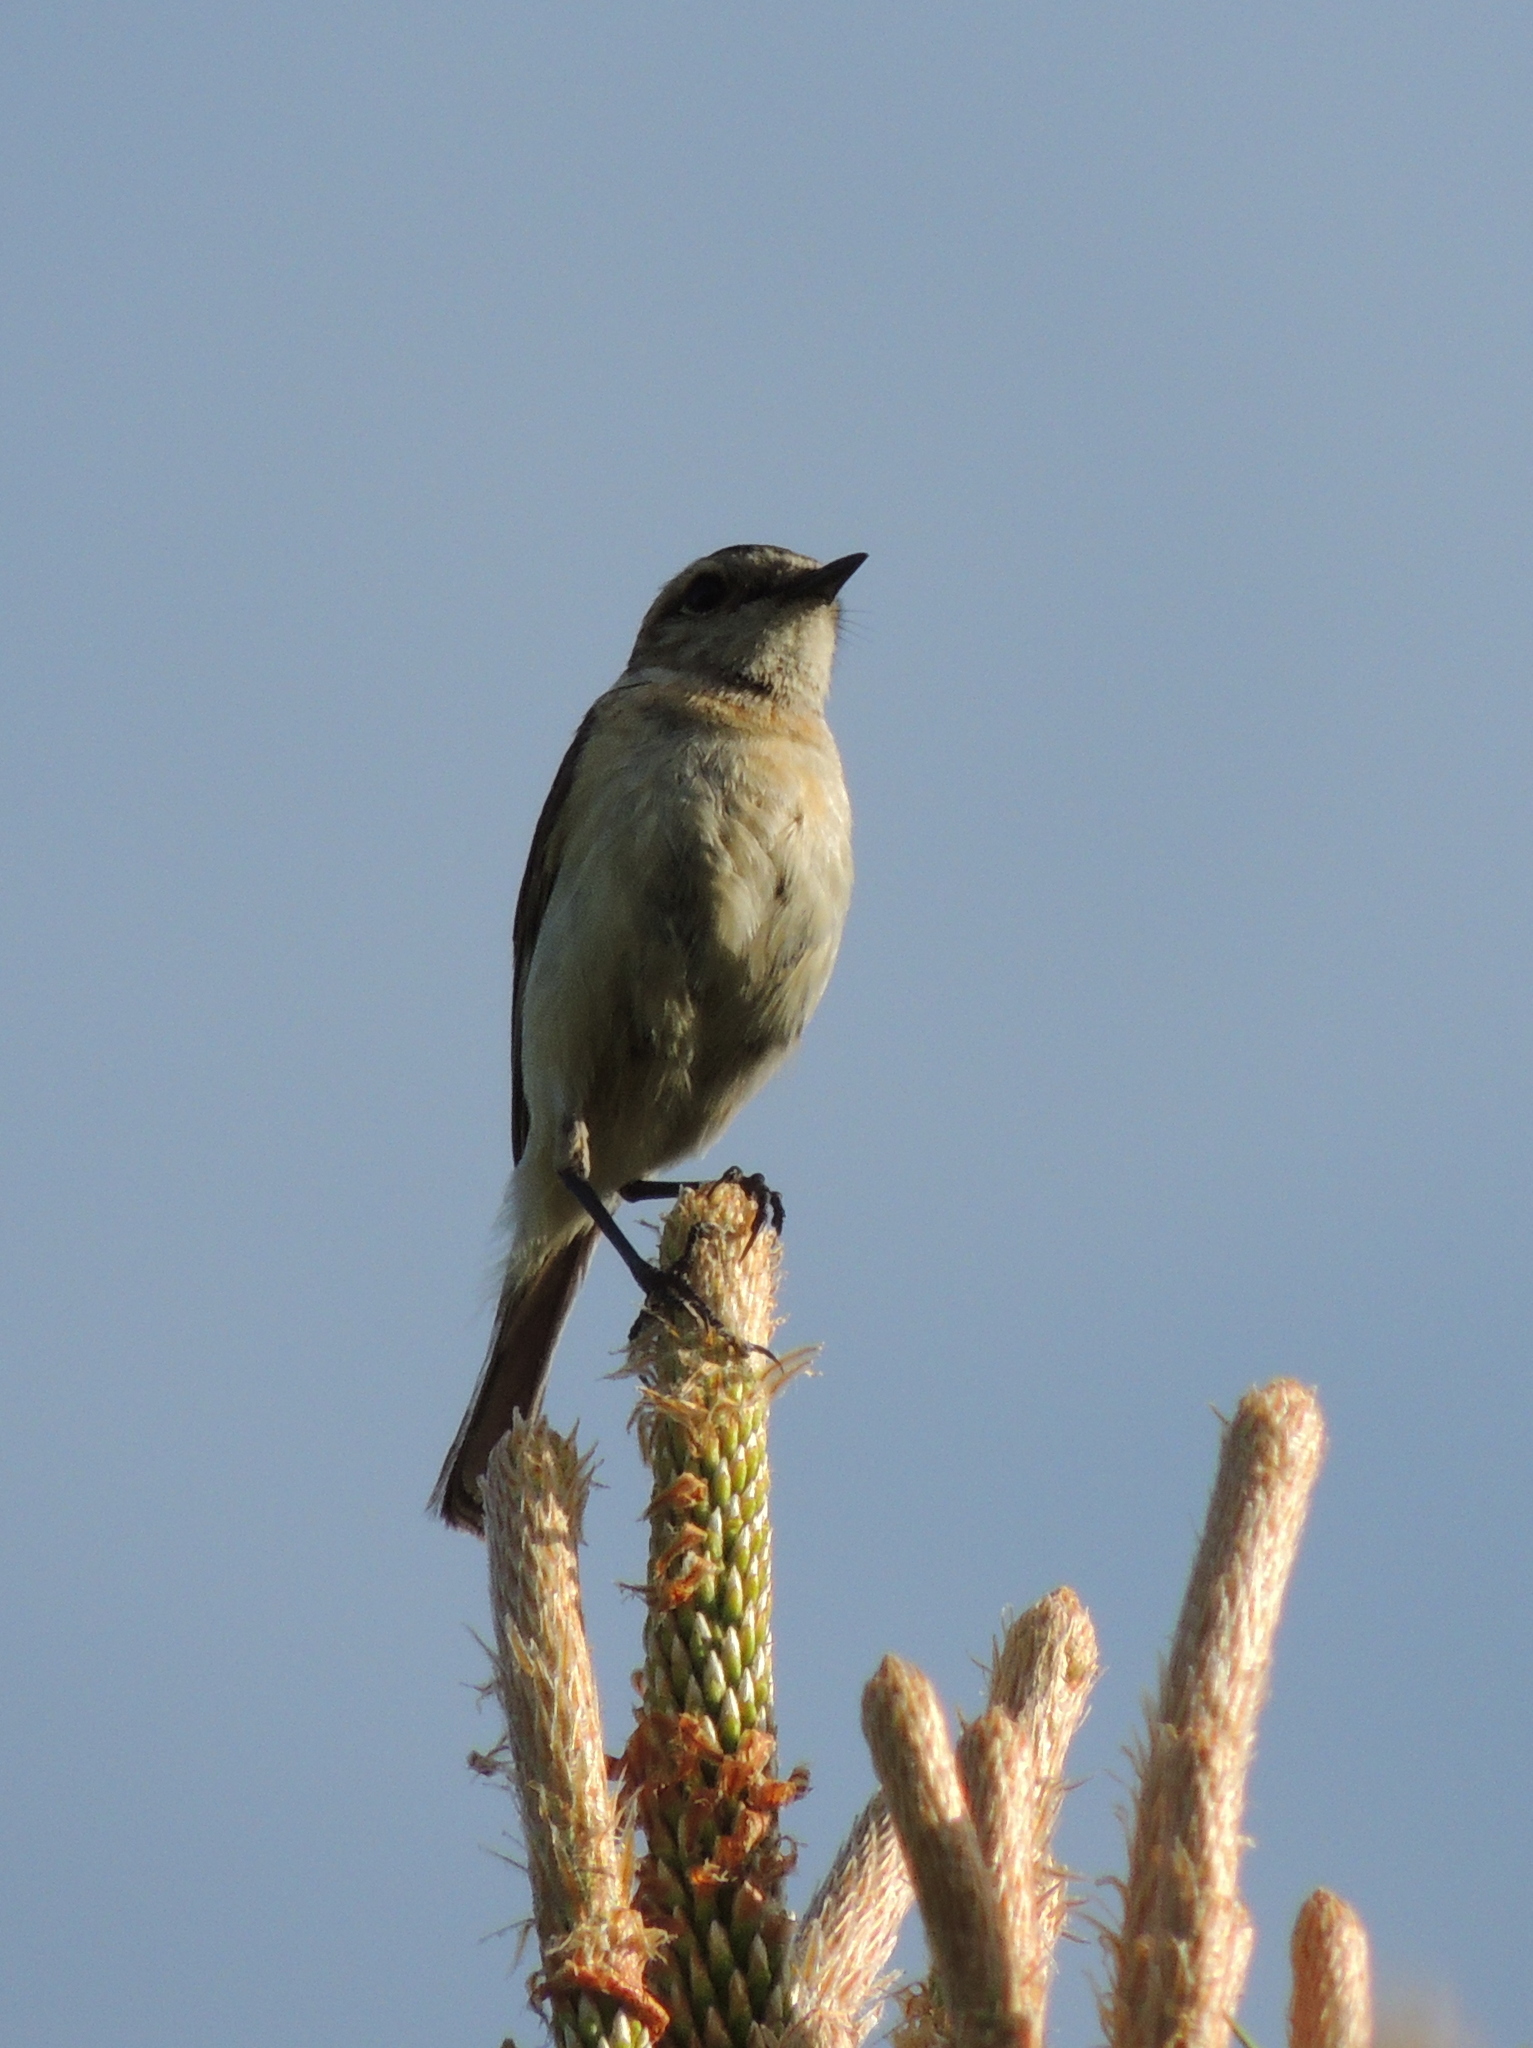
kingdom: Animalia
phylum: Chordata
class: Aves
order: Passeriformes
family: Muscicapidae
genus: Saxicola
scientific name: Saxicola rubetra
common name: Whinchat
